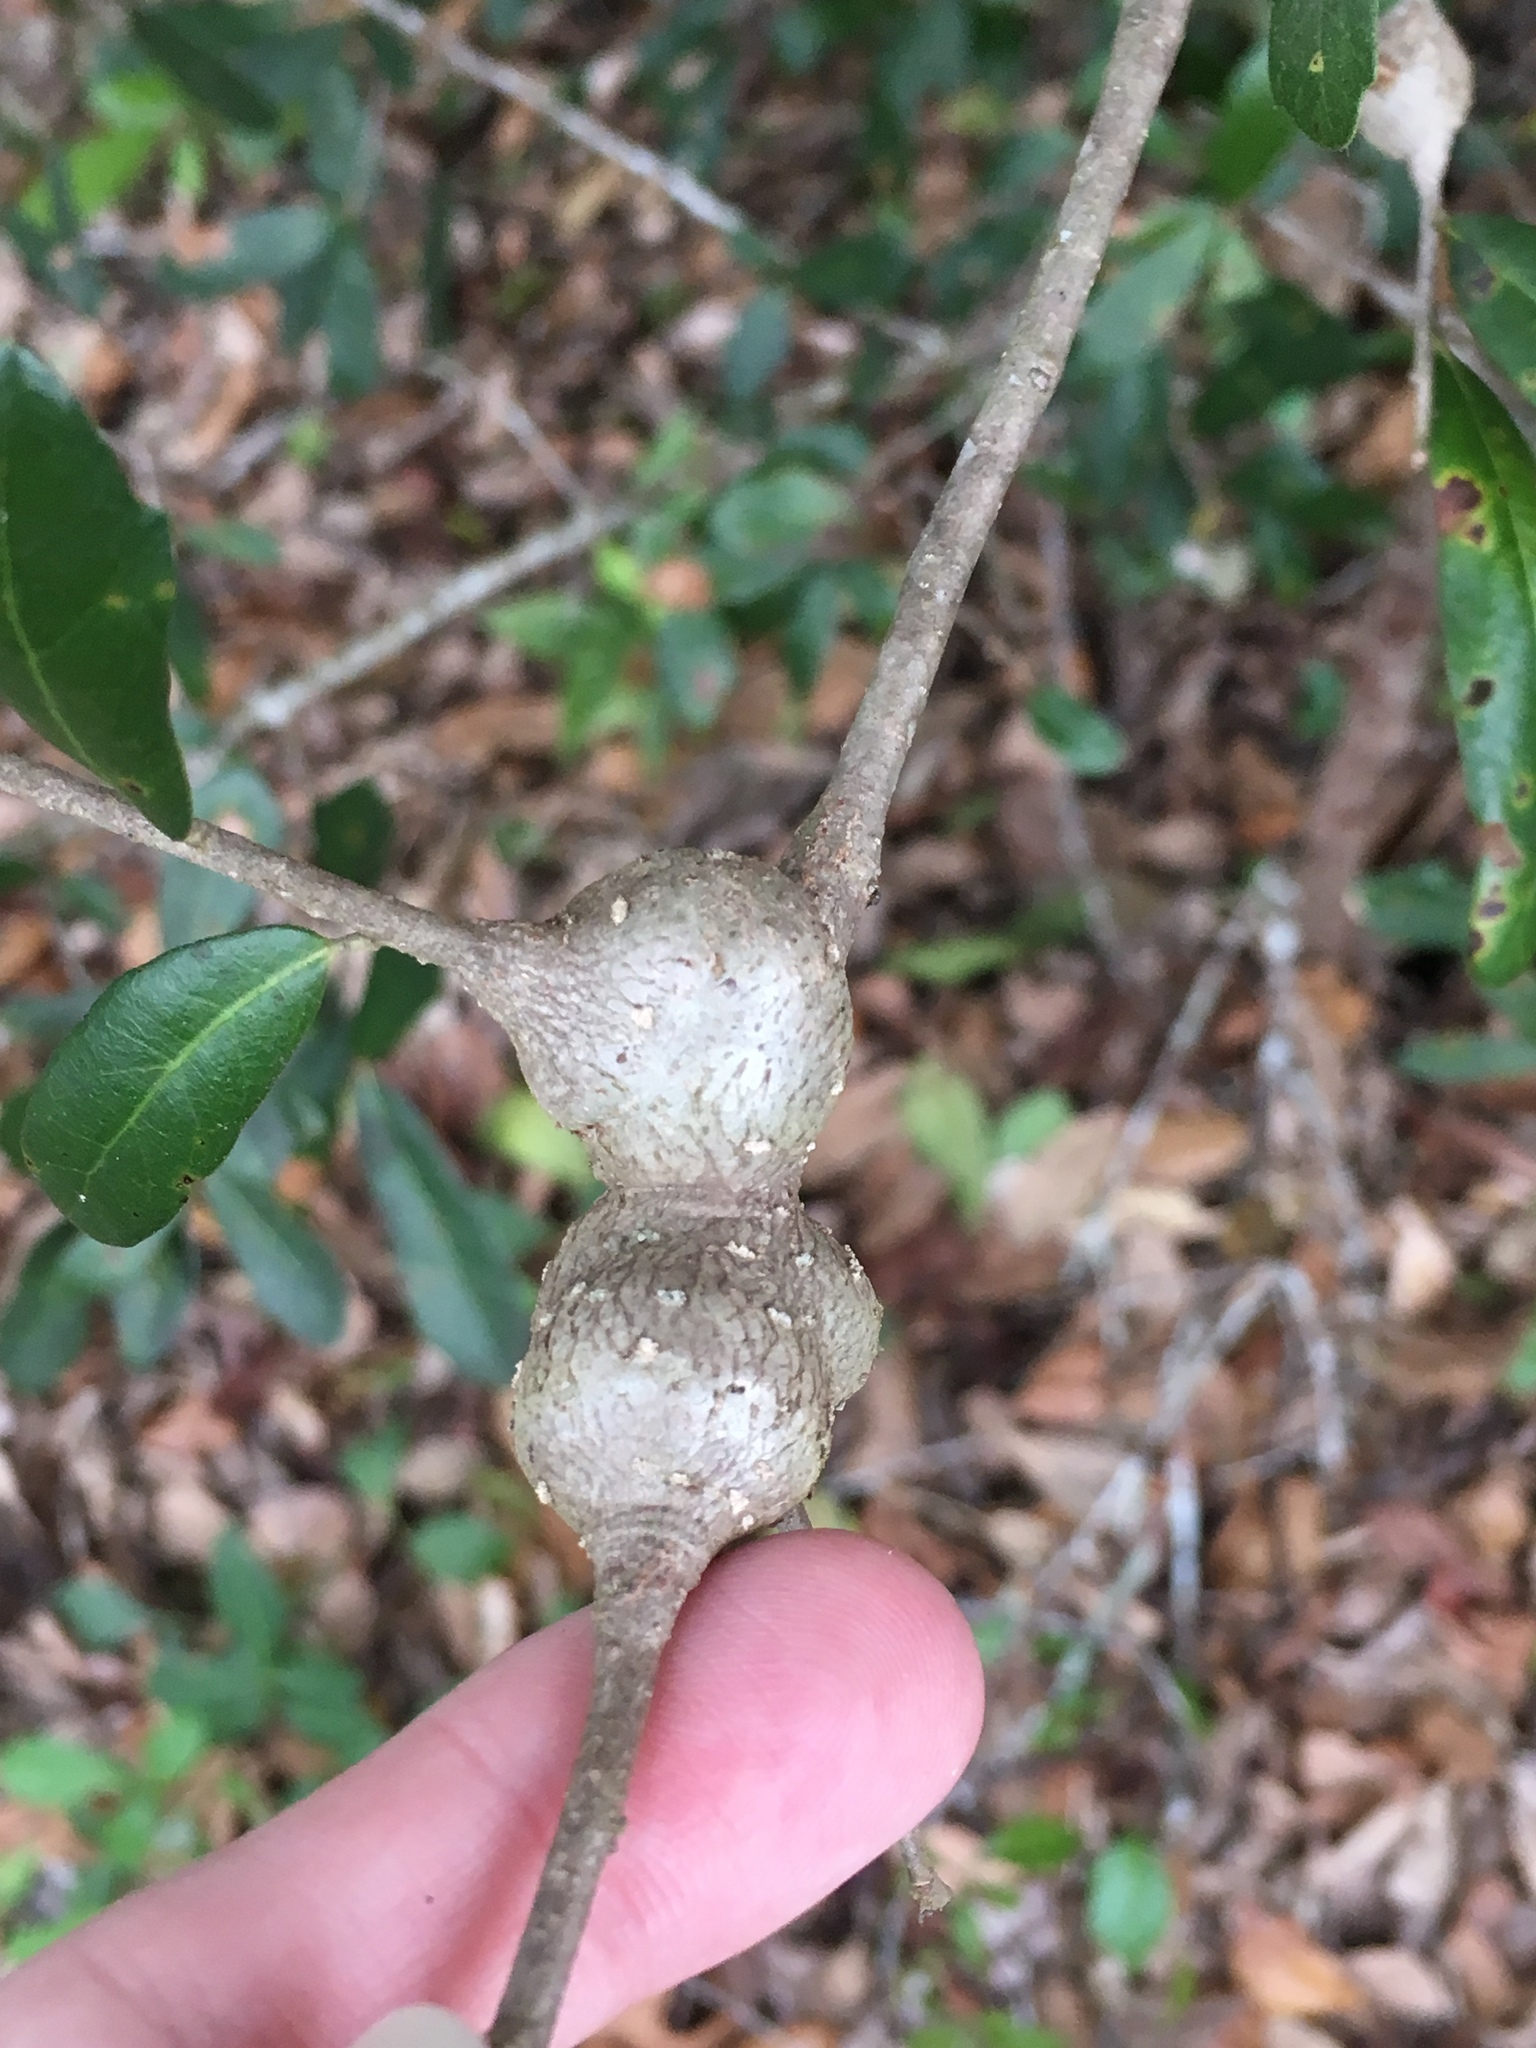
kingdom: Animalia
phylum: Arthropoda
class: Insecta
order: Hymenoptera
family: Cynipidae
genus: Callirhytis
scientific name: Callirhytis
